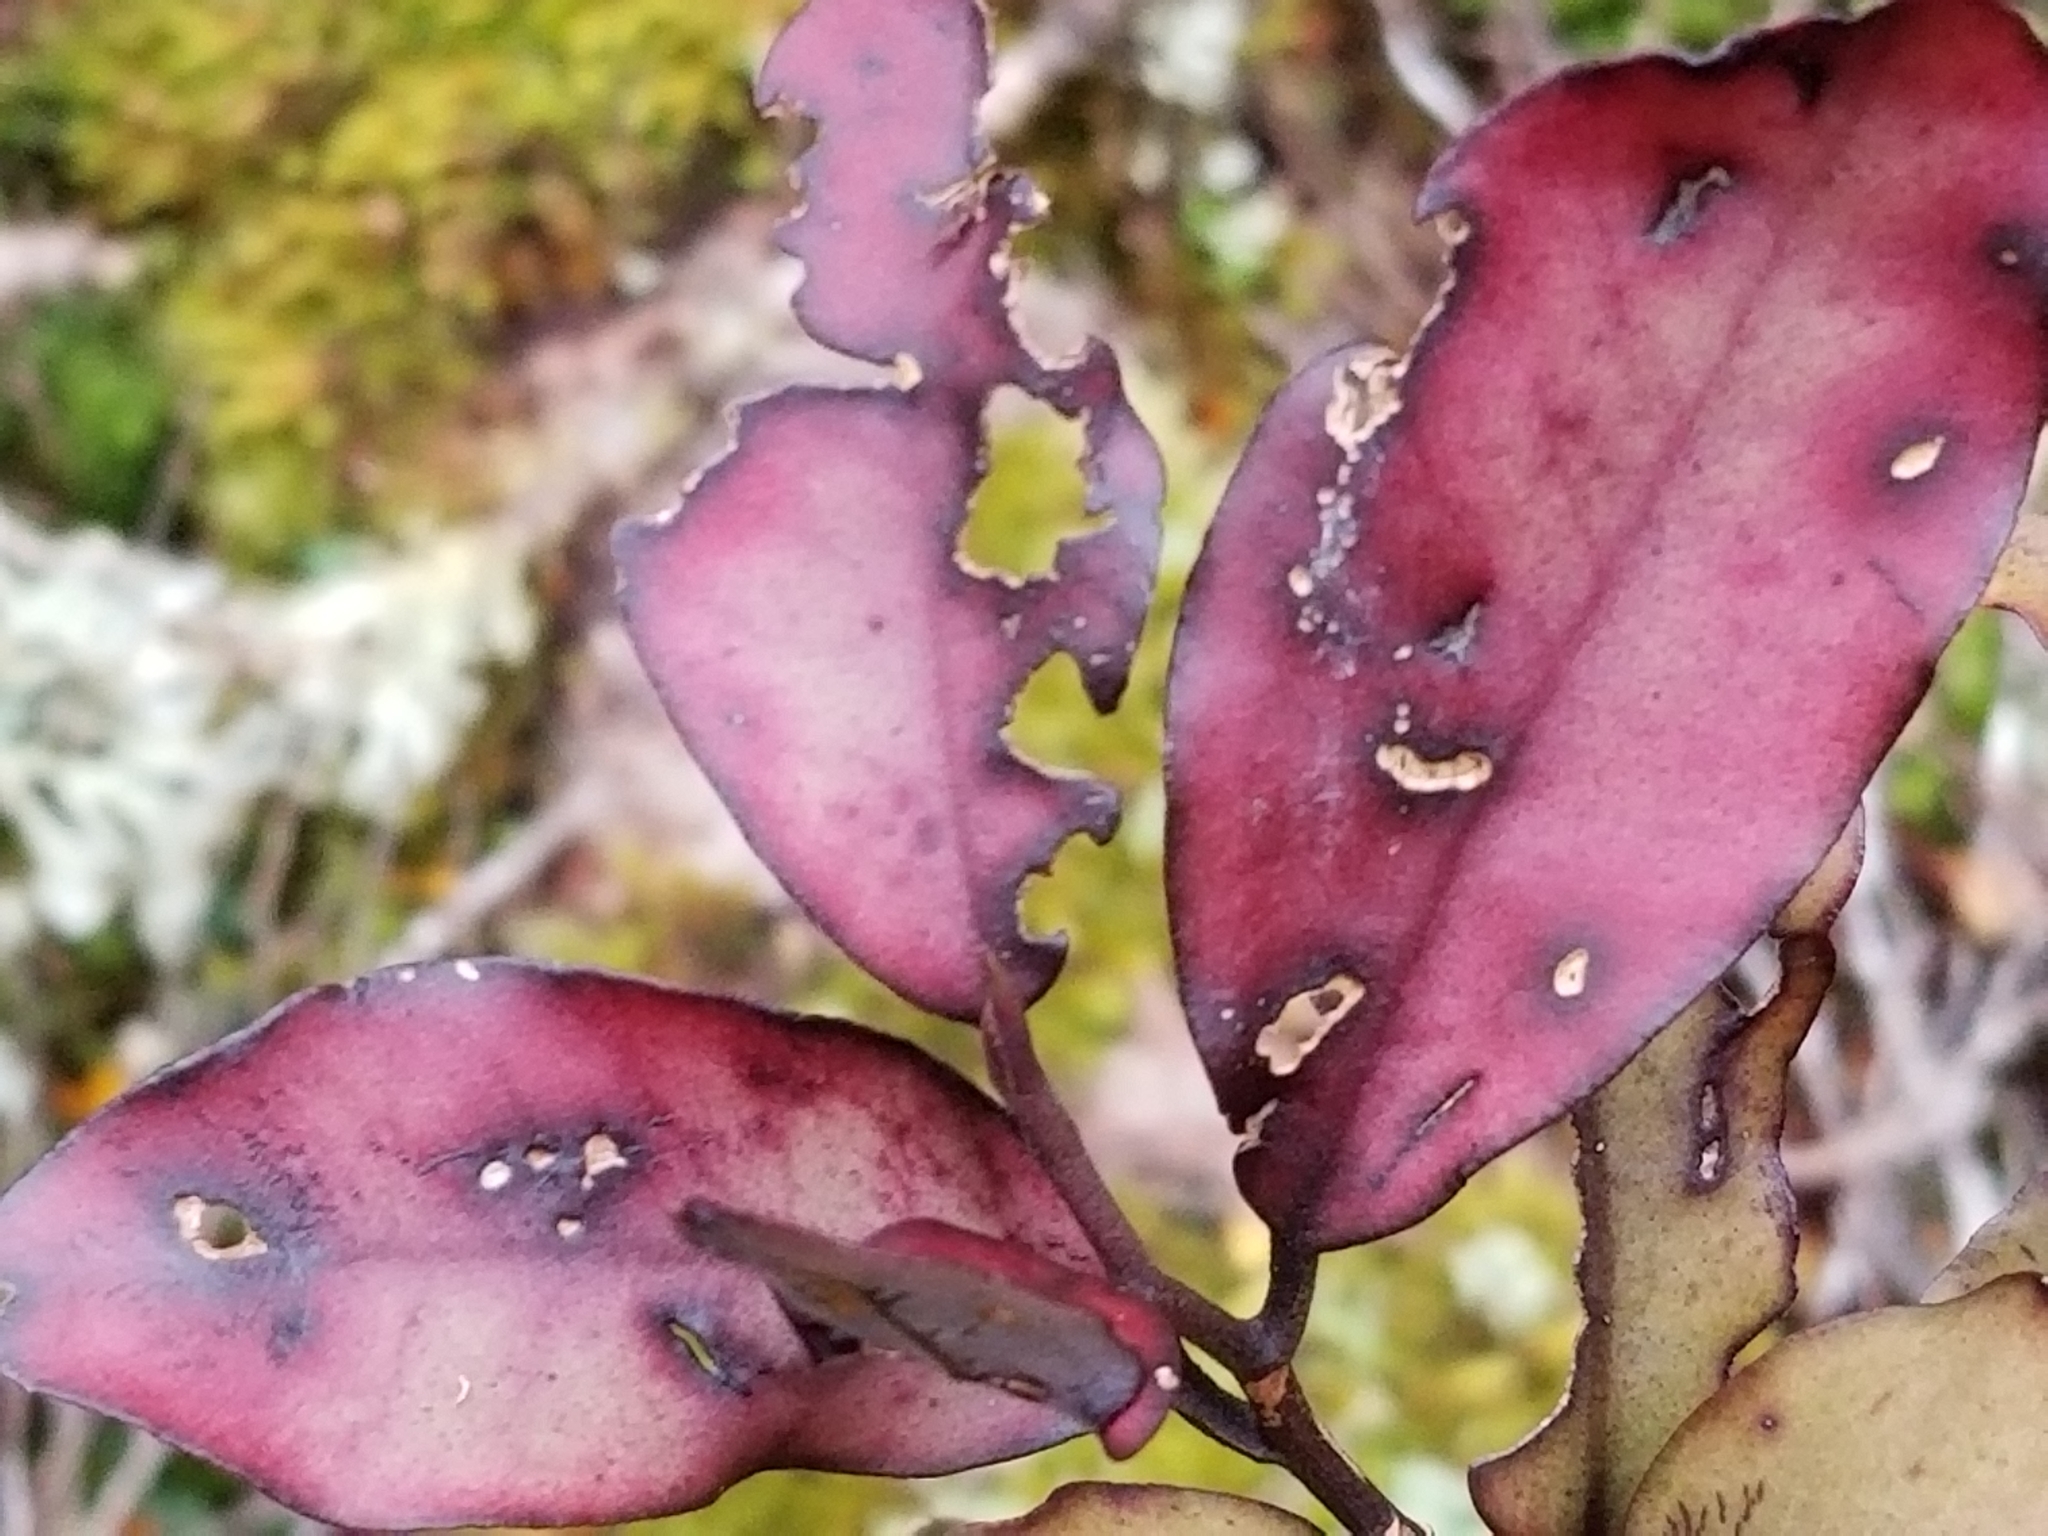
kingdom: Plantae
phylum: Tracheophyta
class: Magnoliopsida
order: Canellales
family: Winteraceae
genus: Pseudowintera
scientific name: Pseudowintera colorata
